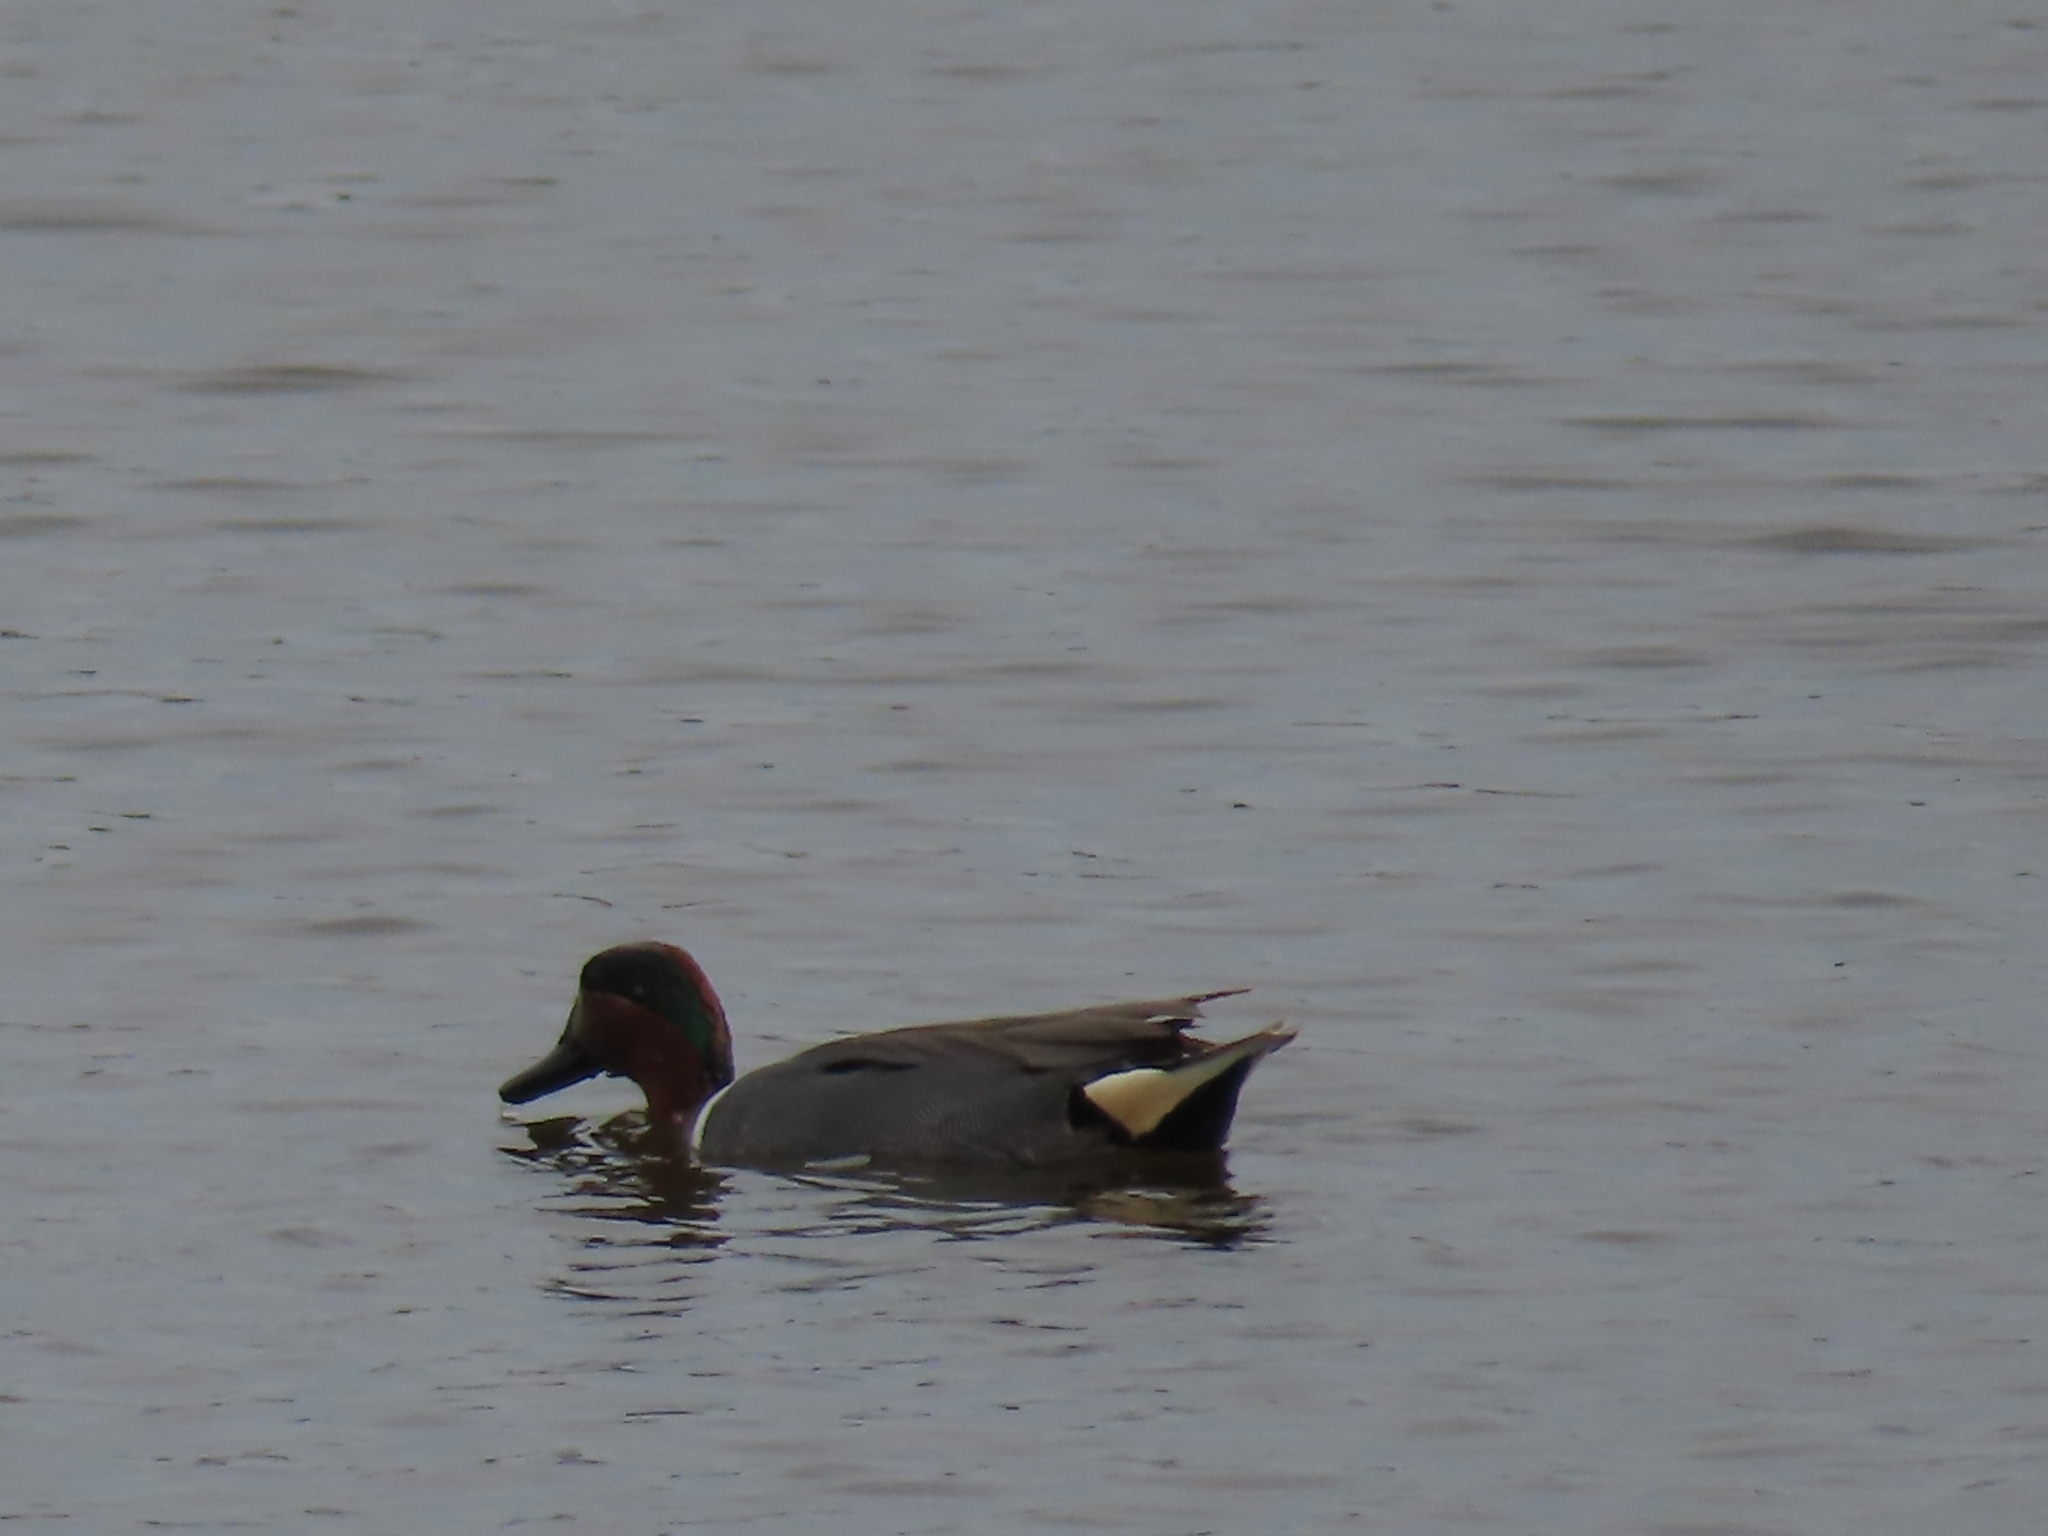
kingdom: Animalia
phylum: Chordata
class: Aves
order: Anseriformes
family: Anatidae
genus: Anas
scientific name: Anas crecca
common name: Eurasian teal
